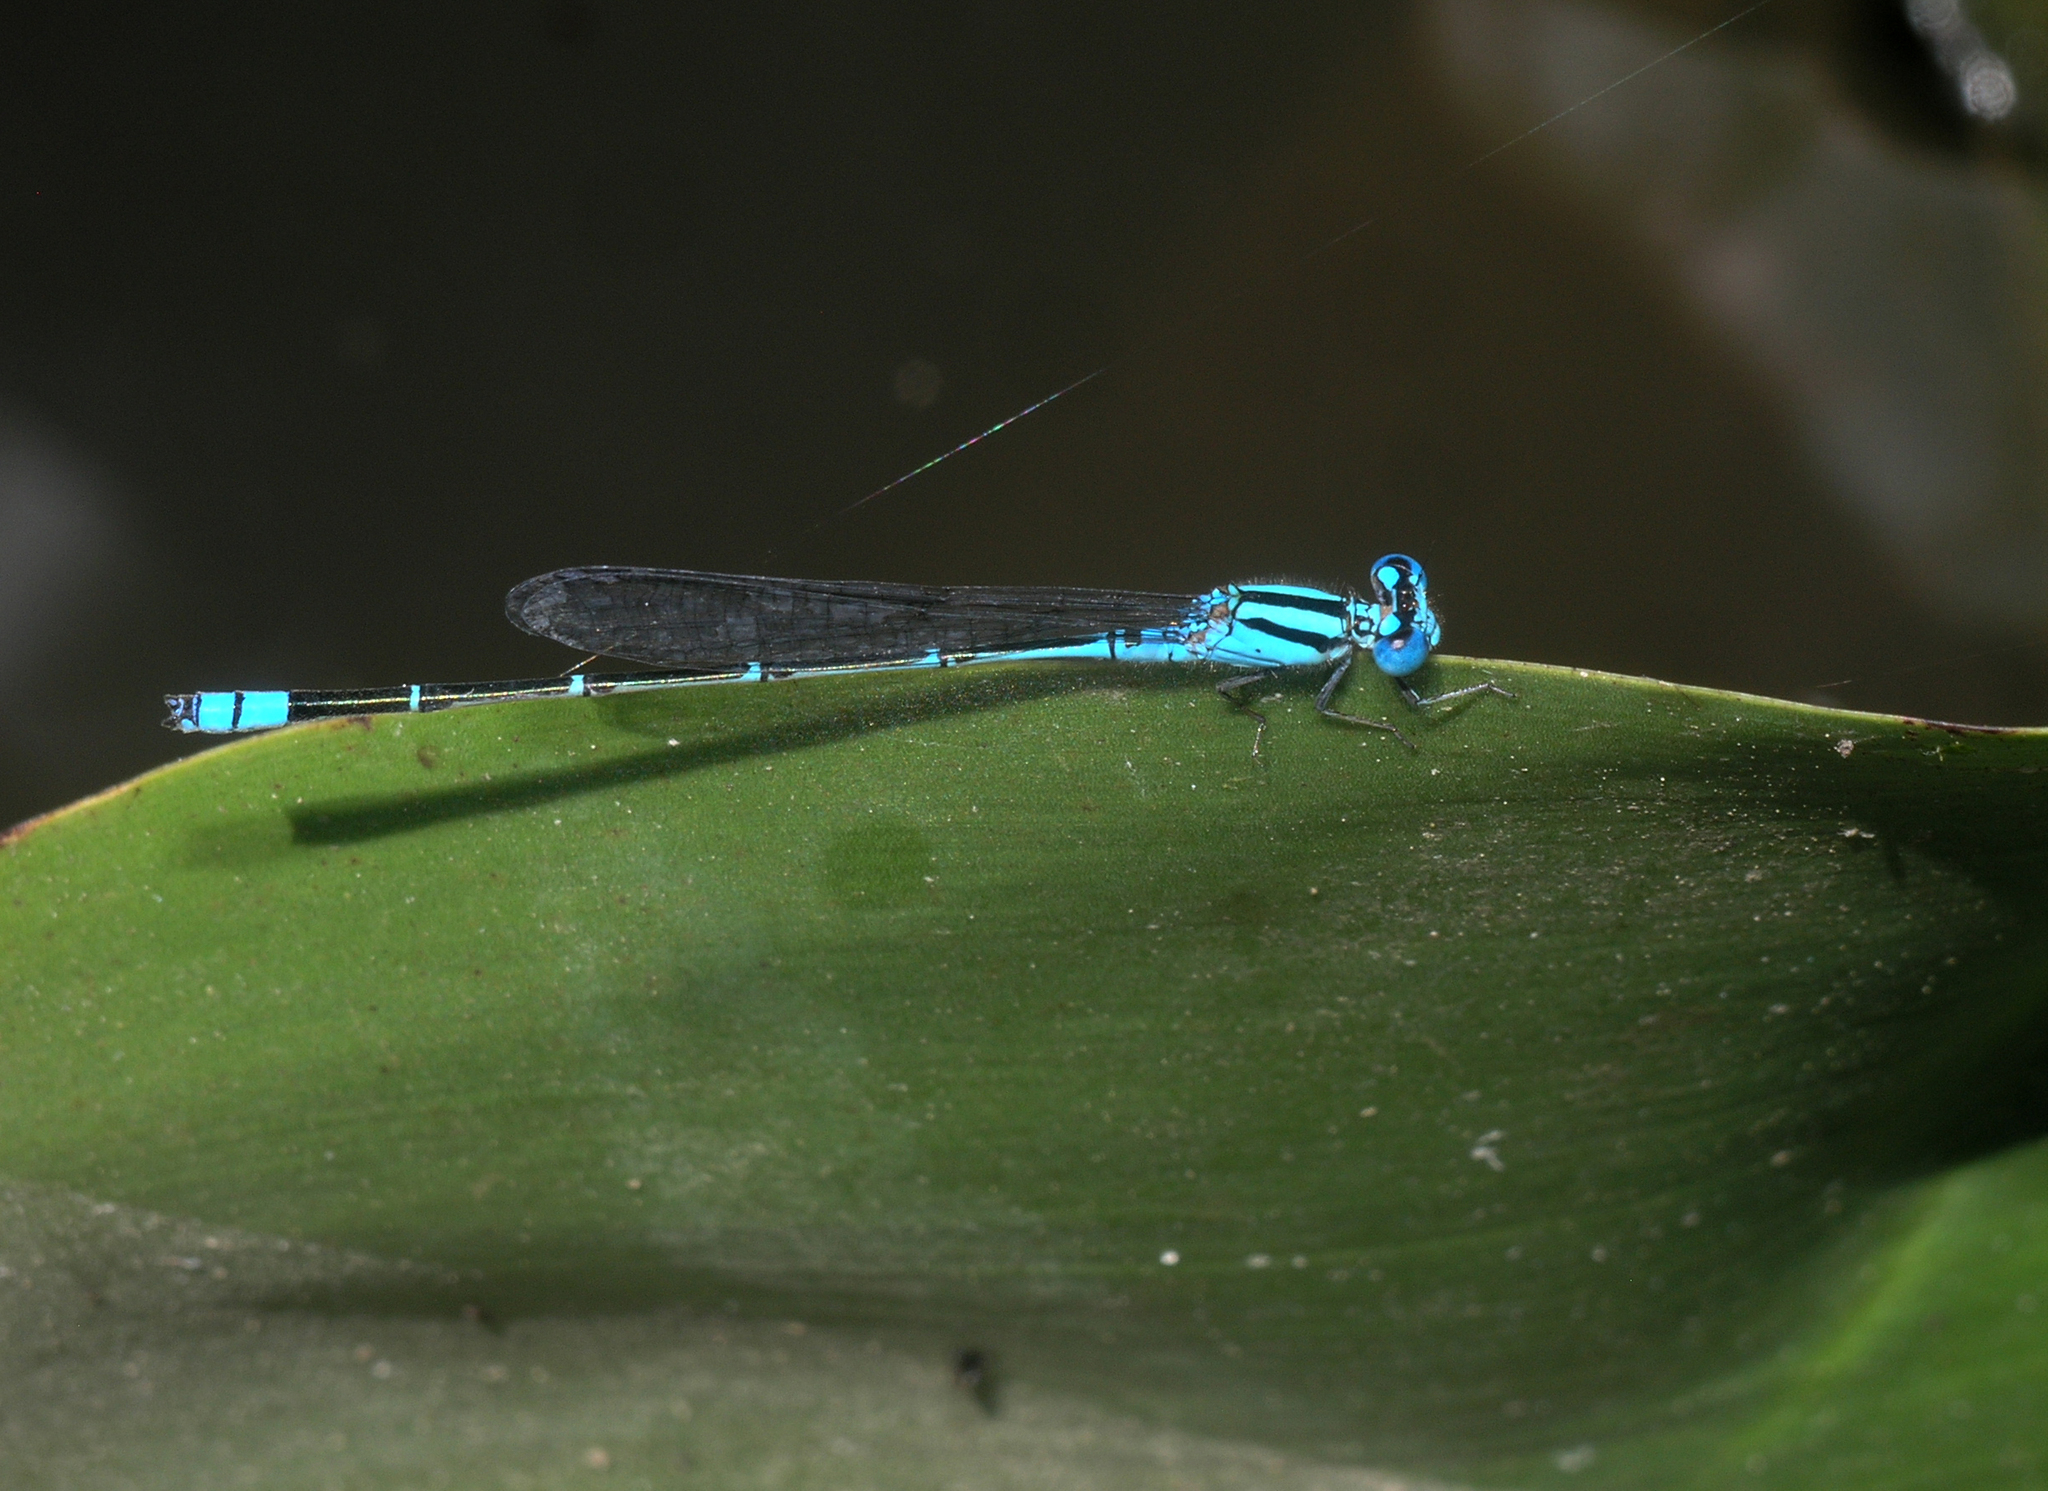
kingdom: Animalia
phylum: Arthropoda
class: Insecta
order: Odonata
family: Coenagrionidae
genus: Pseudagrion
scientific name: Pseudagrion microcephalum
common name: Blue riverdamsel
